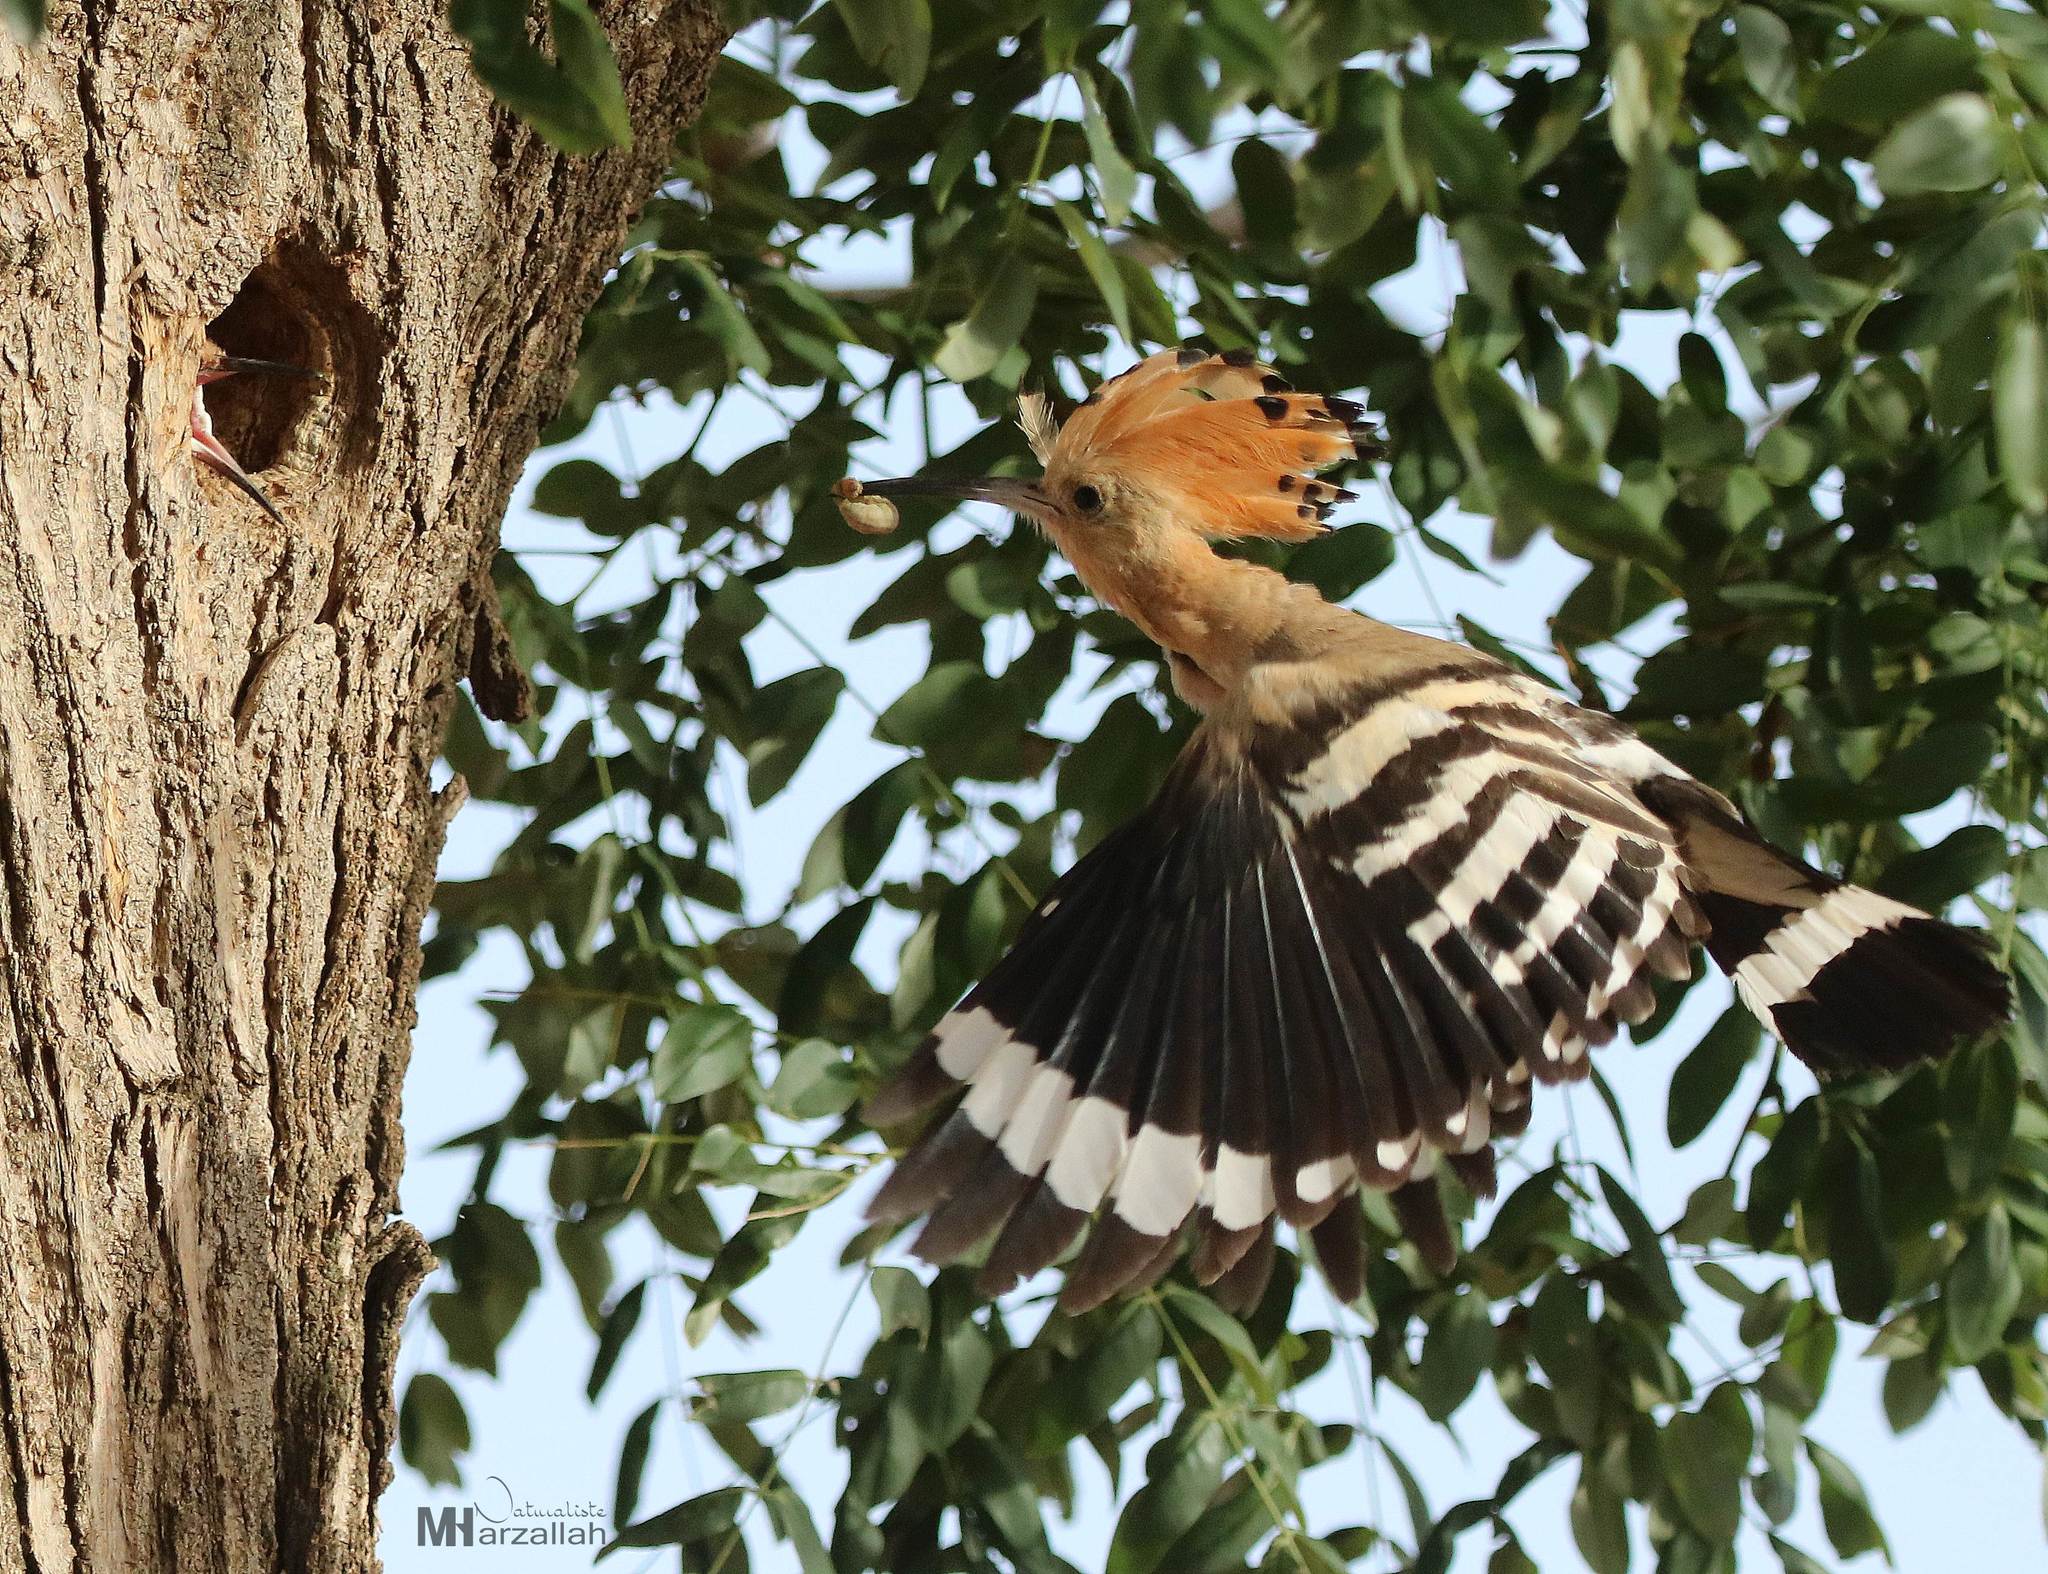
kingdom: Animalia
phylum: Chordata
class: Aves
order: Bucerotiformes
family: Upupidae
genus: Upupa
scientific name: Upupa epops
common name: Eurasian hoopoe
